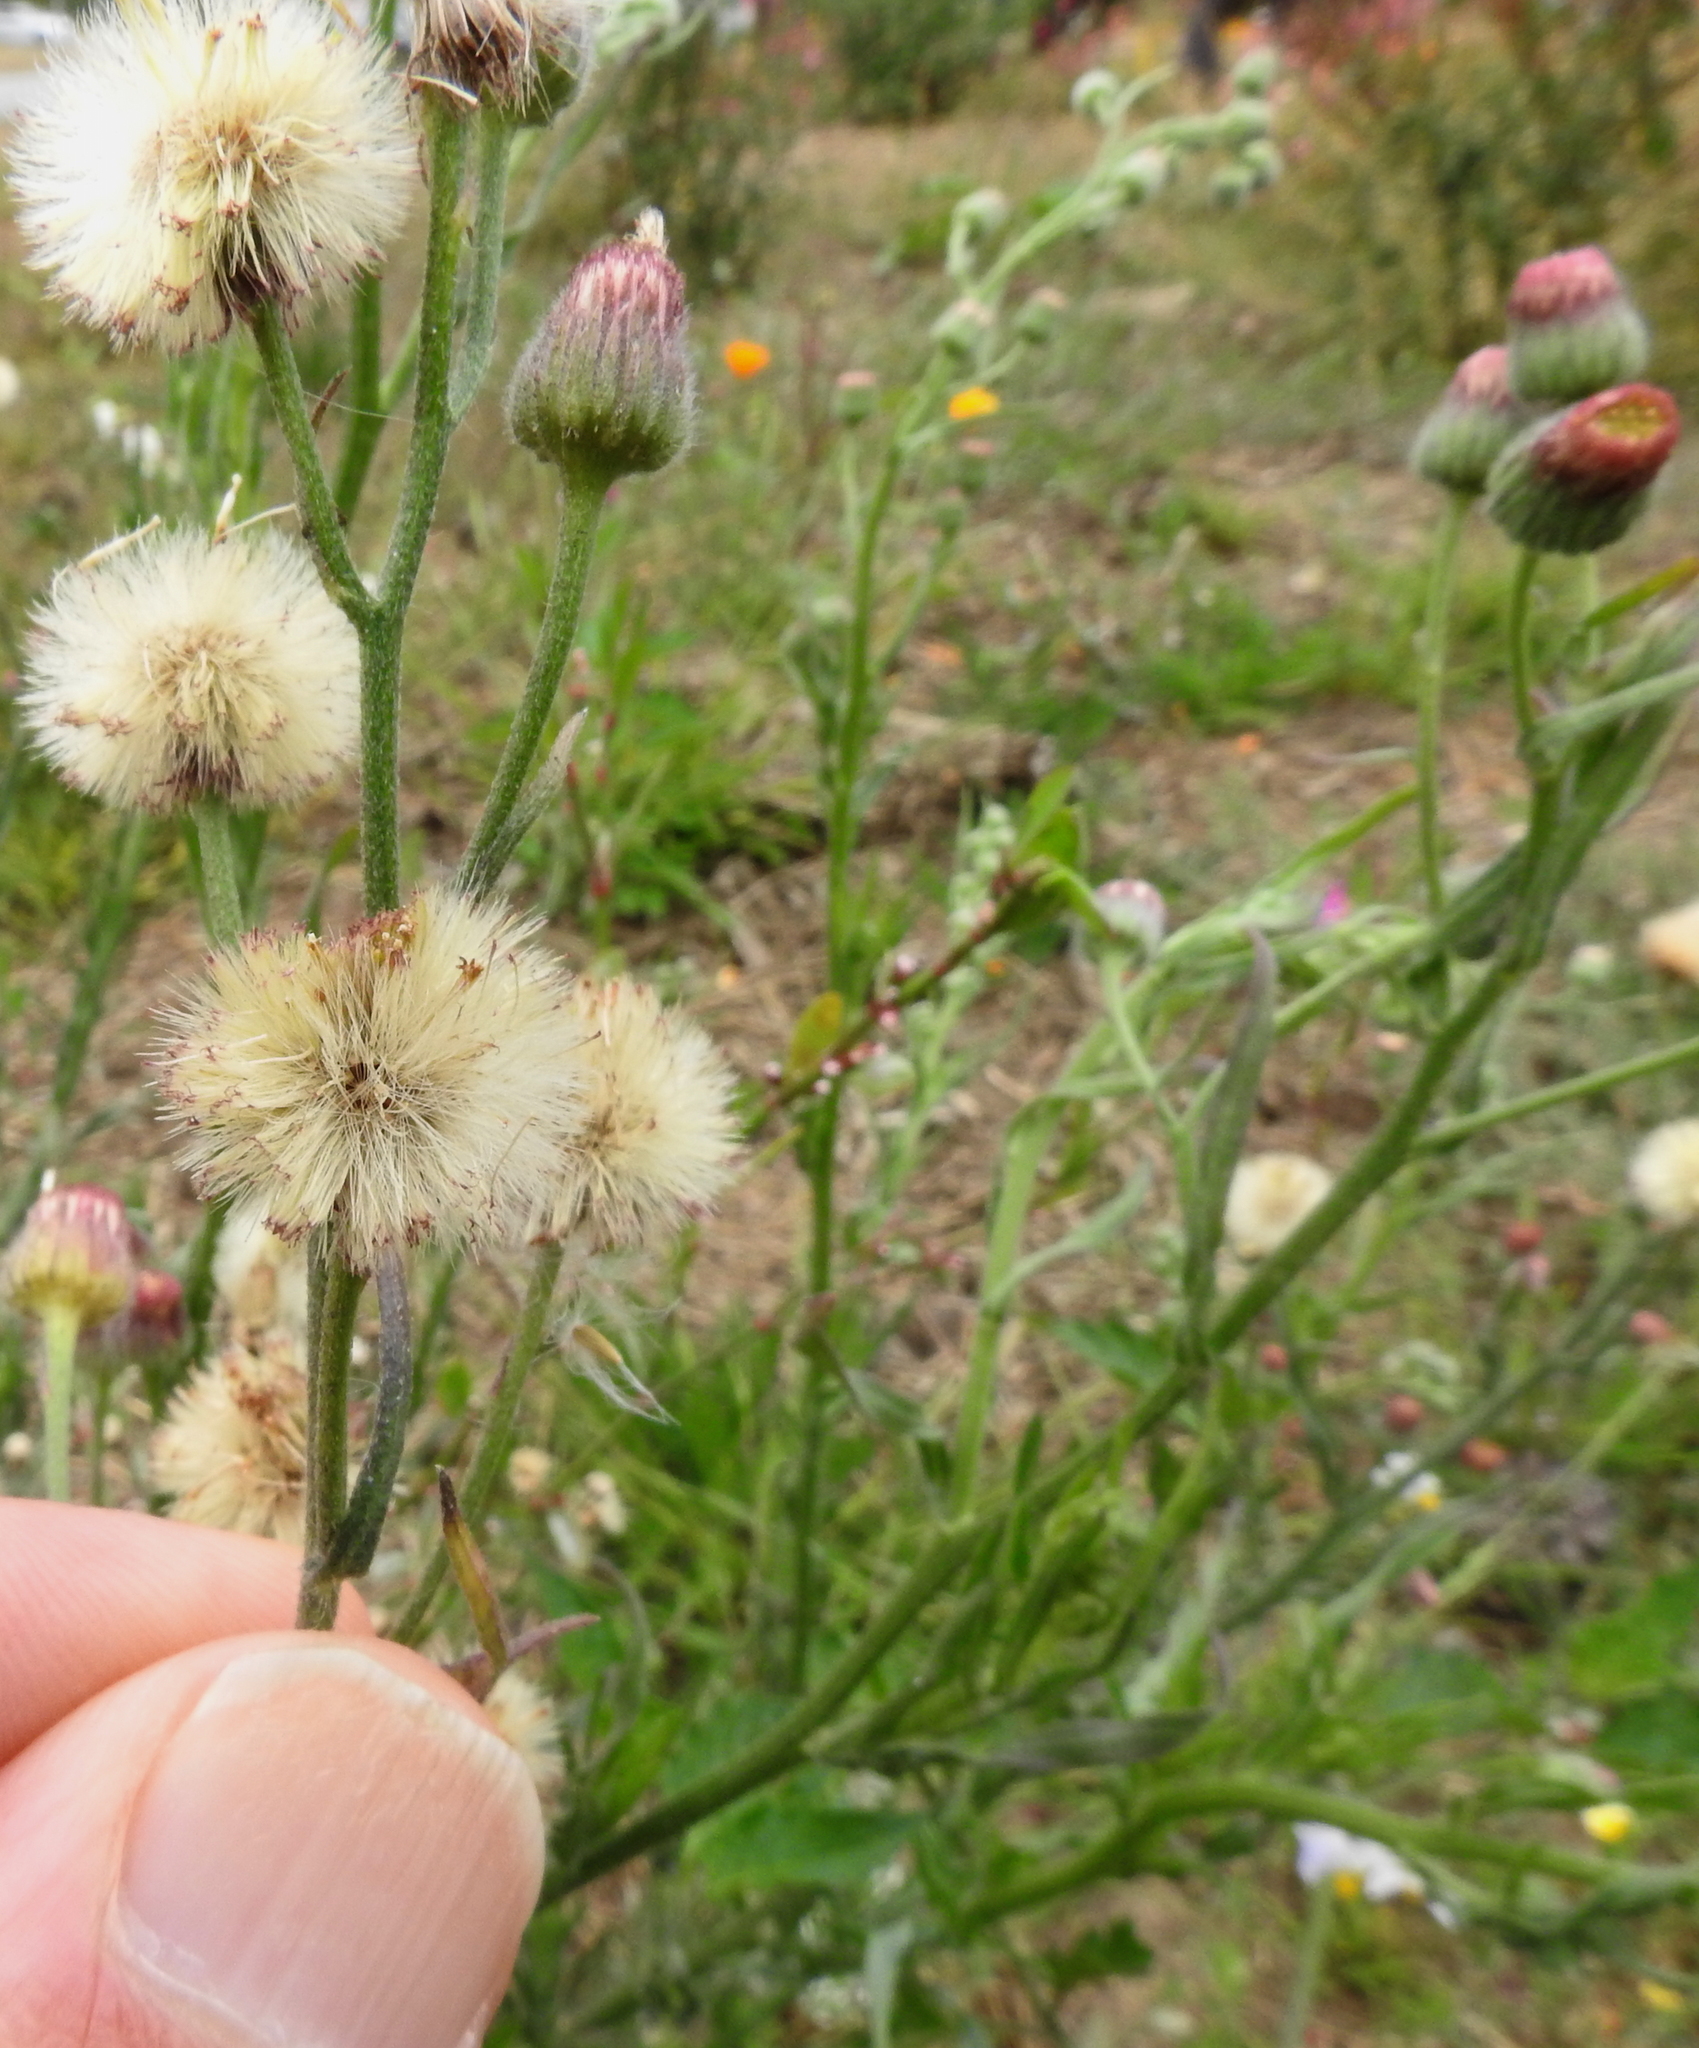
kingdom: Plantae
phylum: Tracheophyta
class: Magnoliopsida
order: Asterales
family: Asteraceae
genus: Erigeron
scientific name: Erigeron bonariensis
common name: Argentine fleabane
